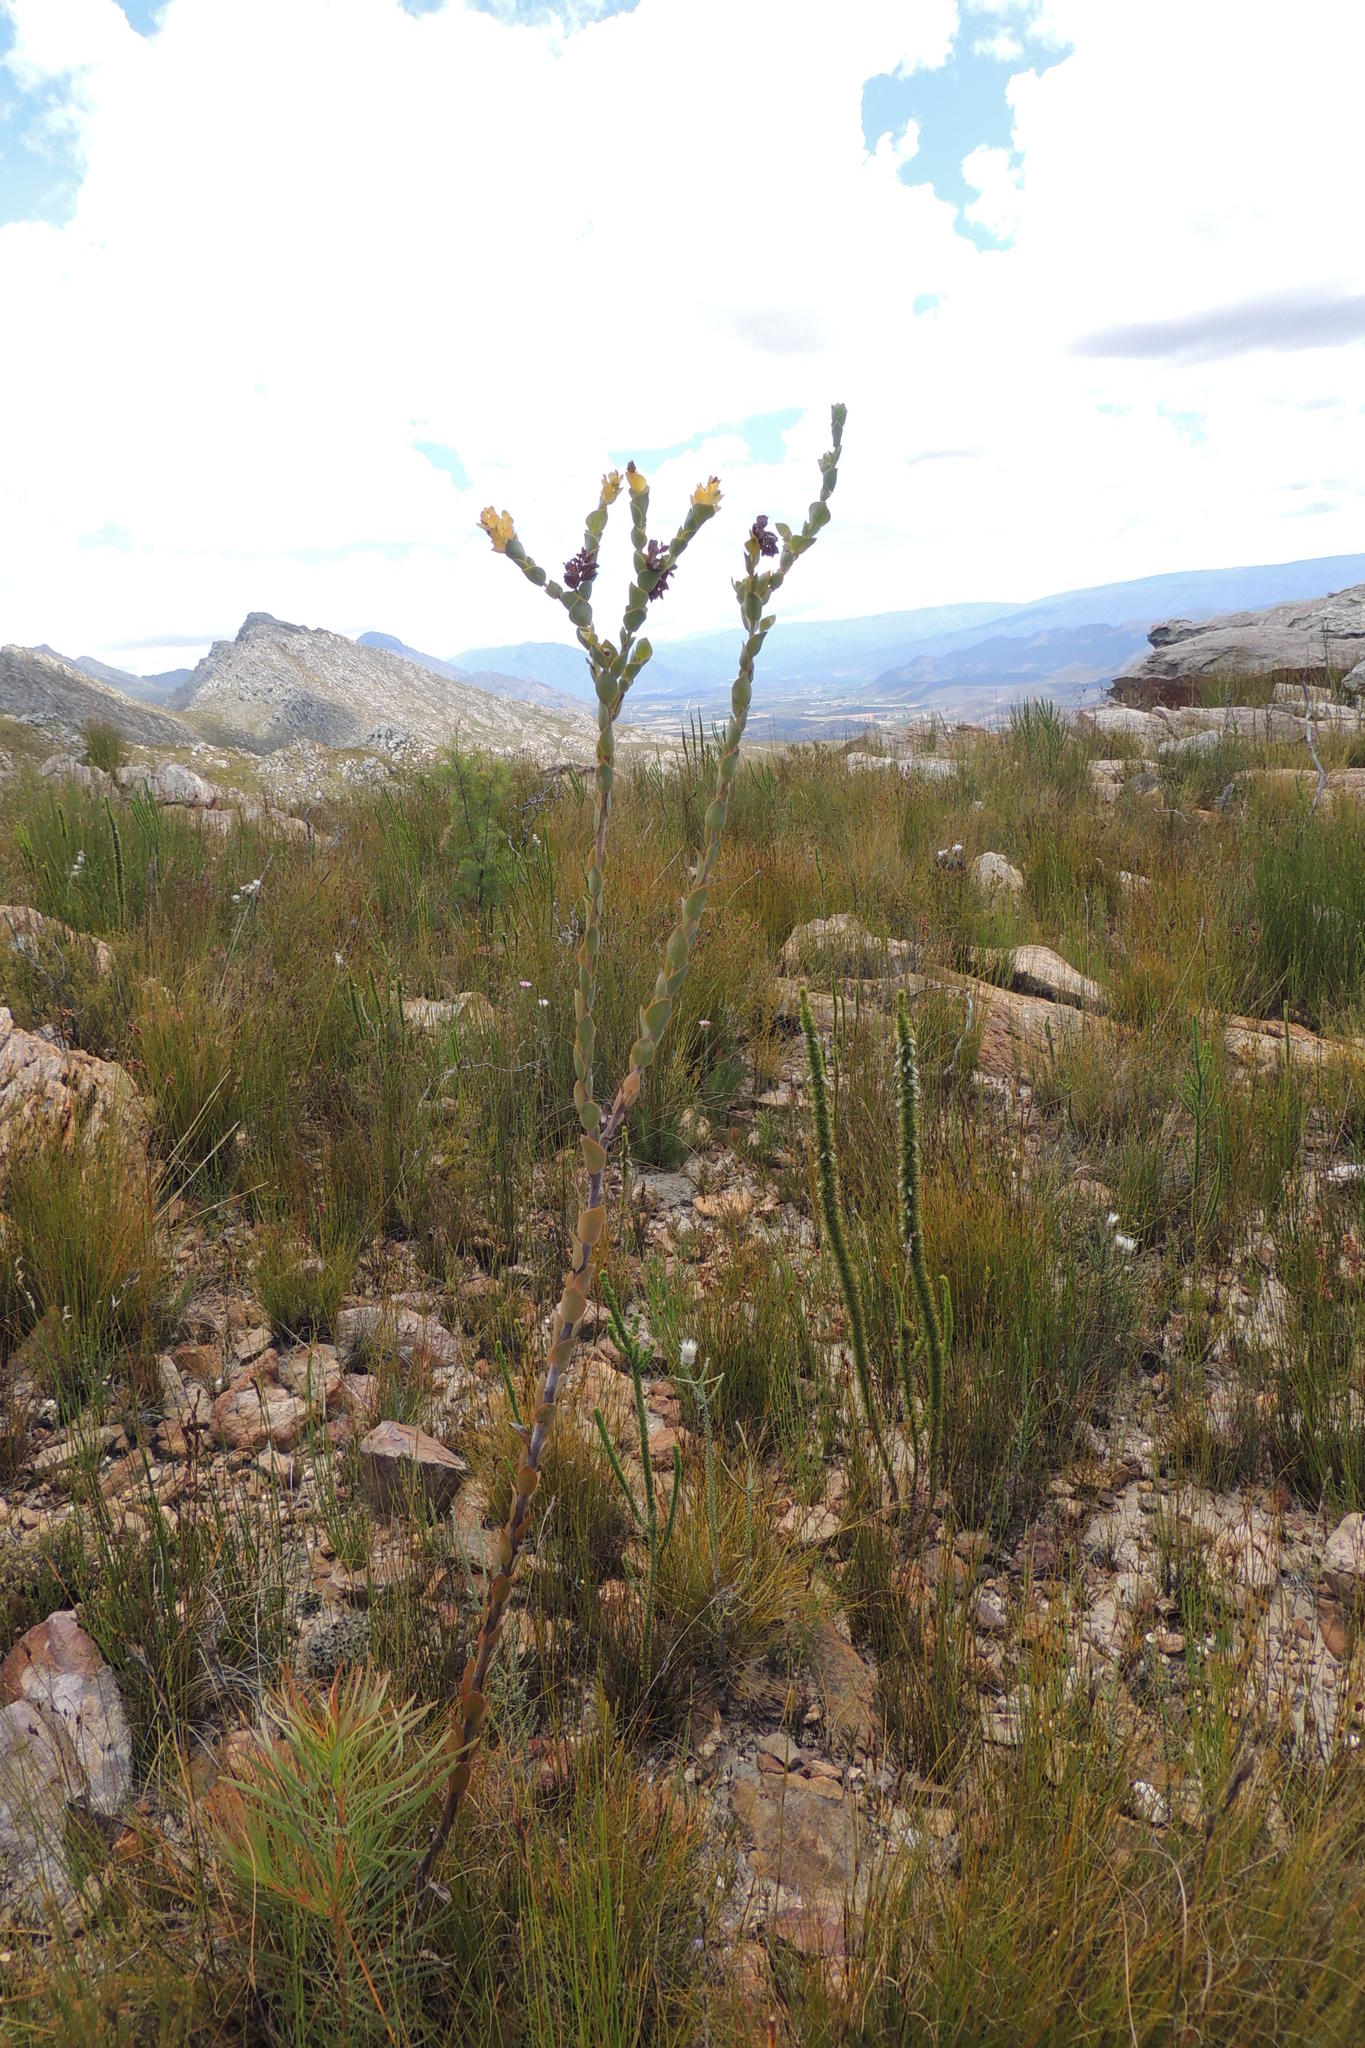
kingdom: Plantae
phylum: Tracheophyta
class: Magnoliopsida
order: Santalales
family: Thesiaceae
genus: Thesium
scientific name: Thesium euphorbioides
